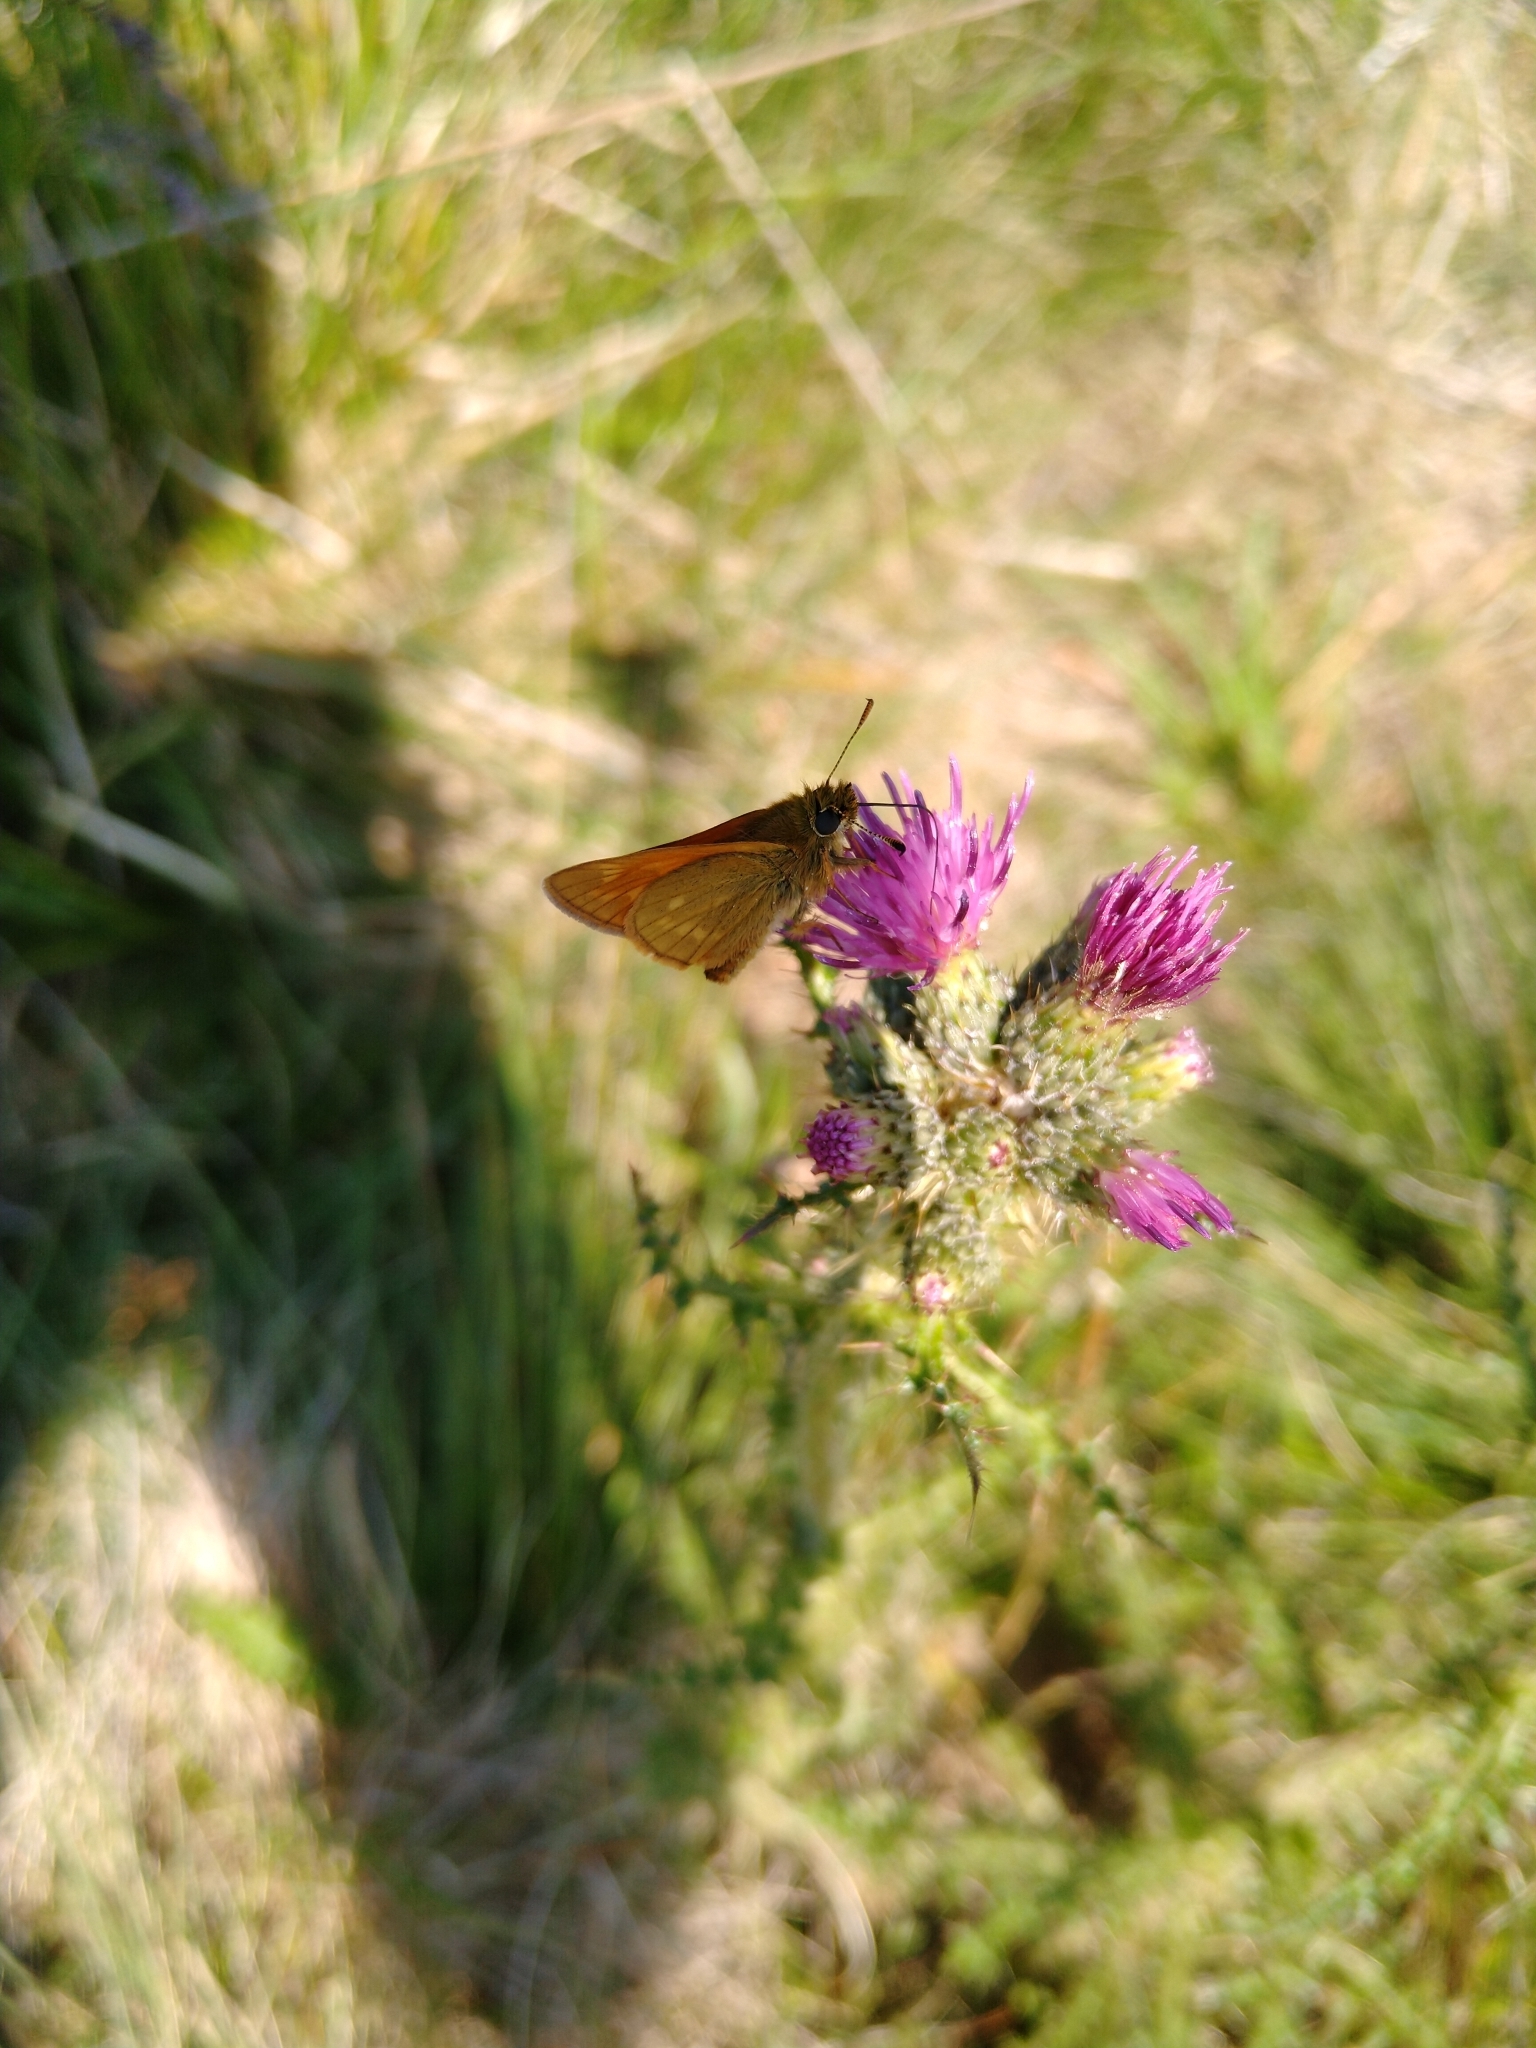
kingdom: Animalia
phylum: Arthropoda
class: Insecta
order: Lepidoptera
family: Hesperiidae
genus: Ochlodes
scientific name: Ochlodes venata
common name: Large skipper
